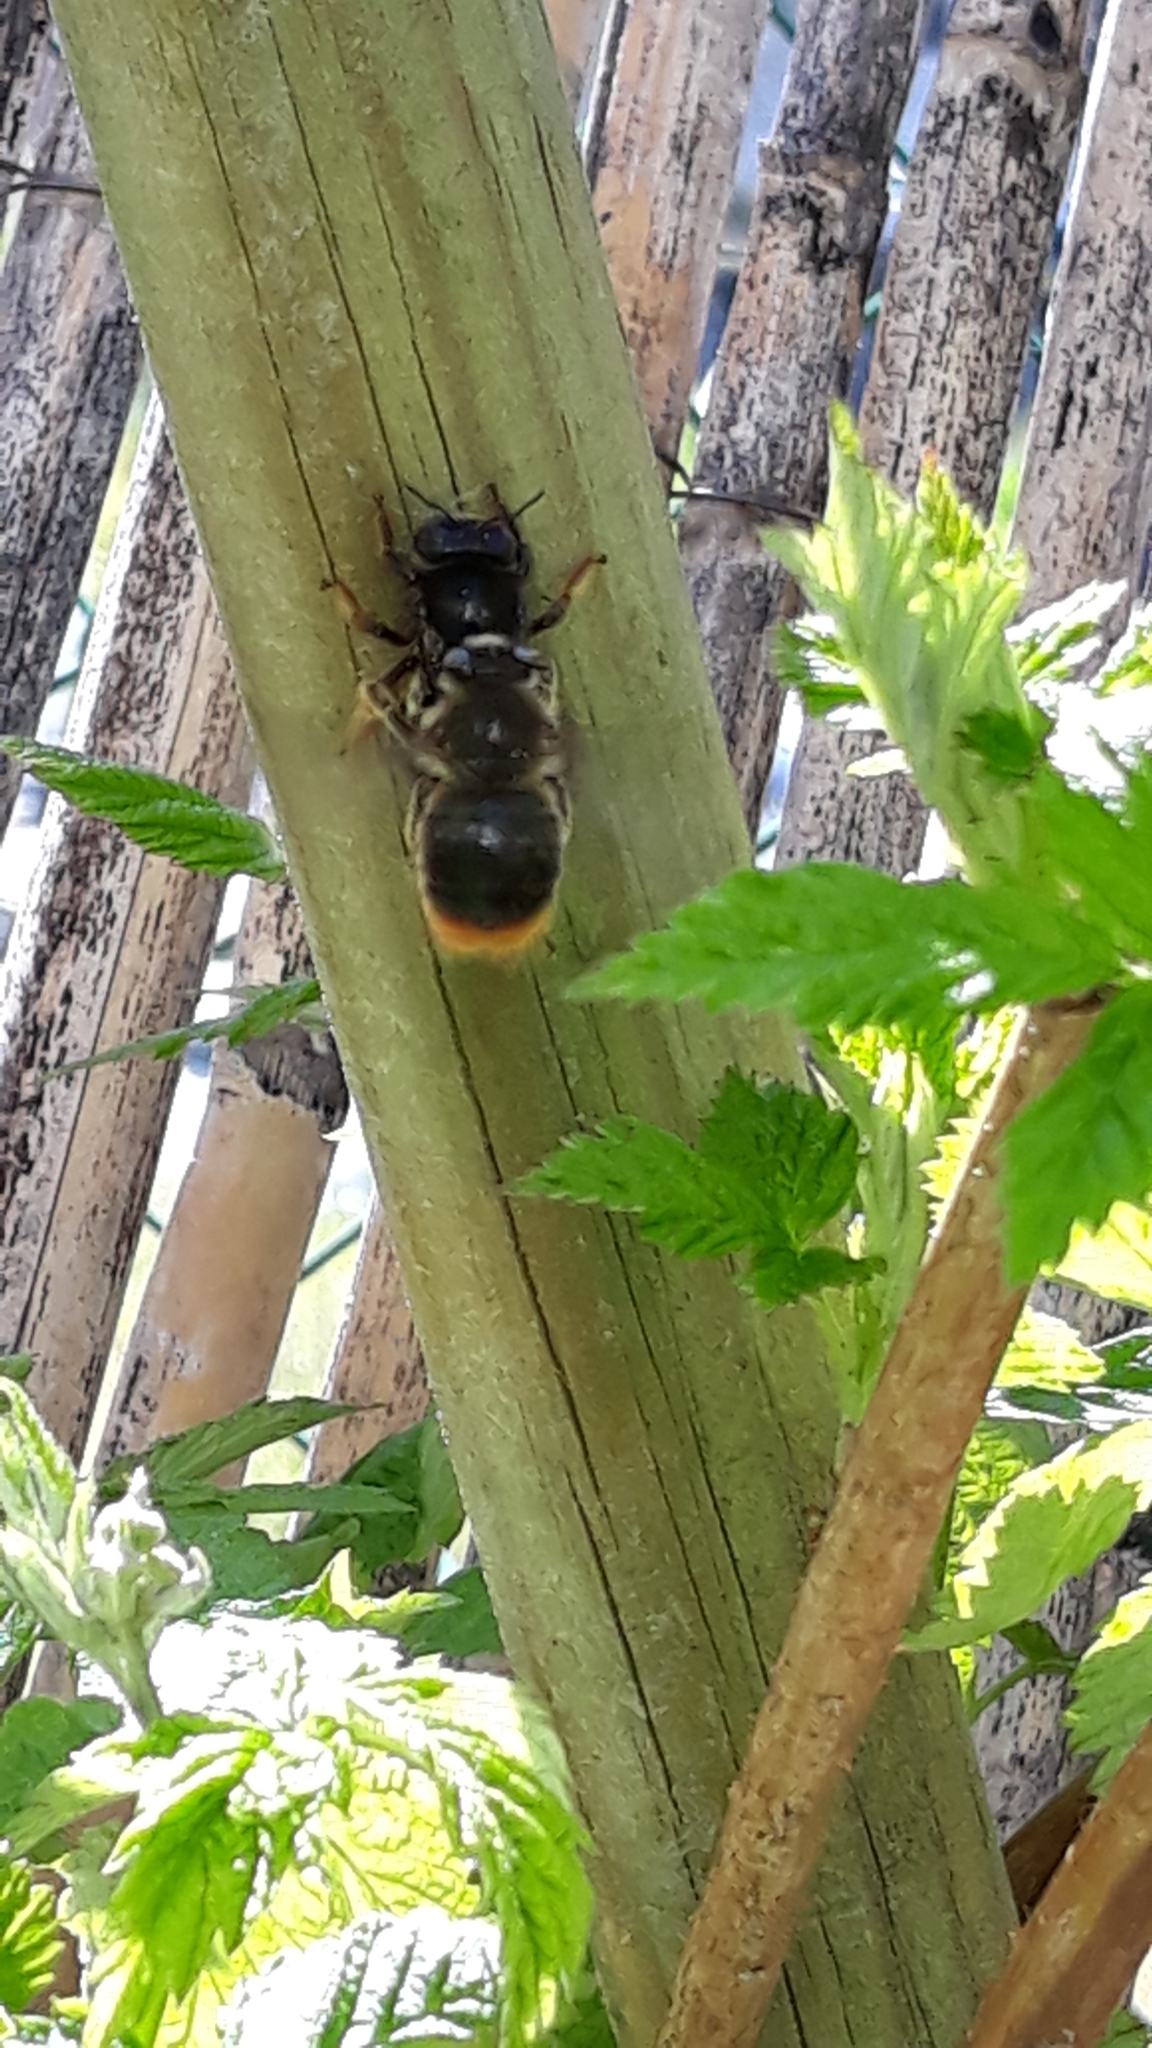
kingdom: Animalia
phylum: Arthropoda
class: Insecta
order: Hymenoptera
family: Apidae
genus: Xylocopa
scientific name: Xylocopa cantabrita
